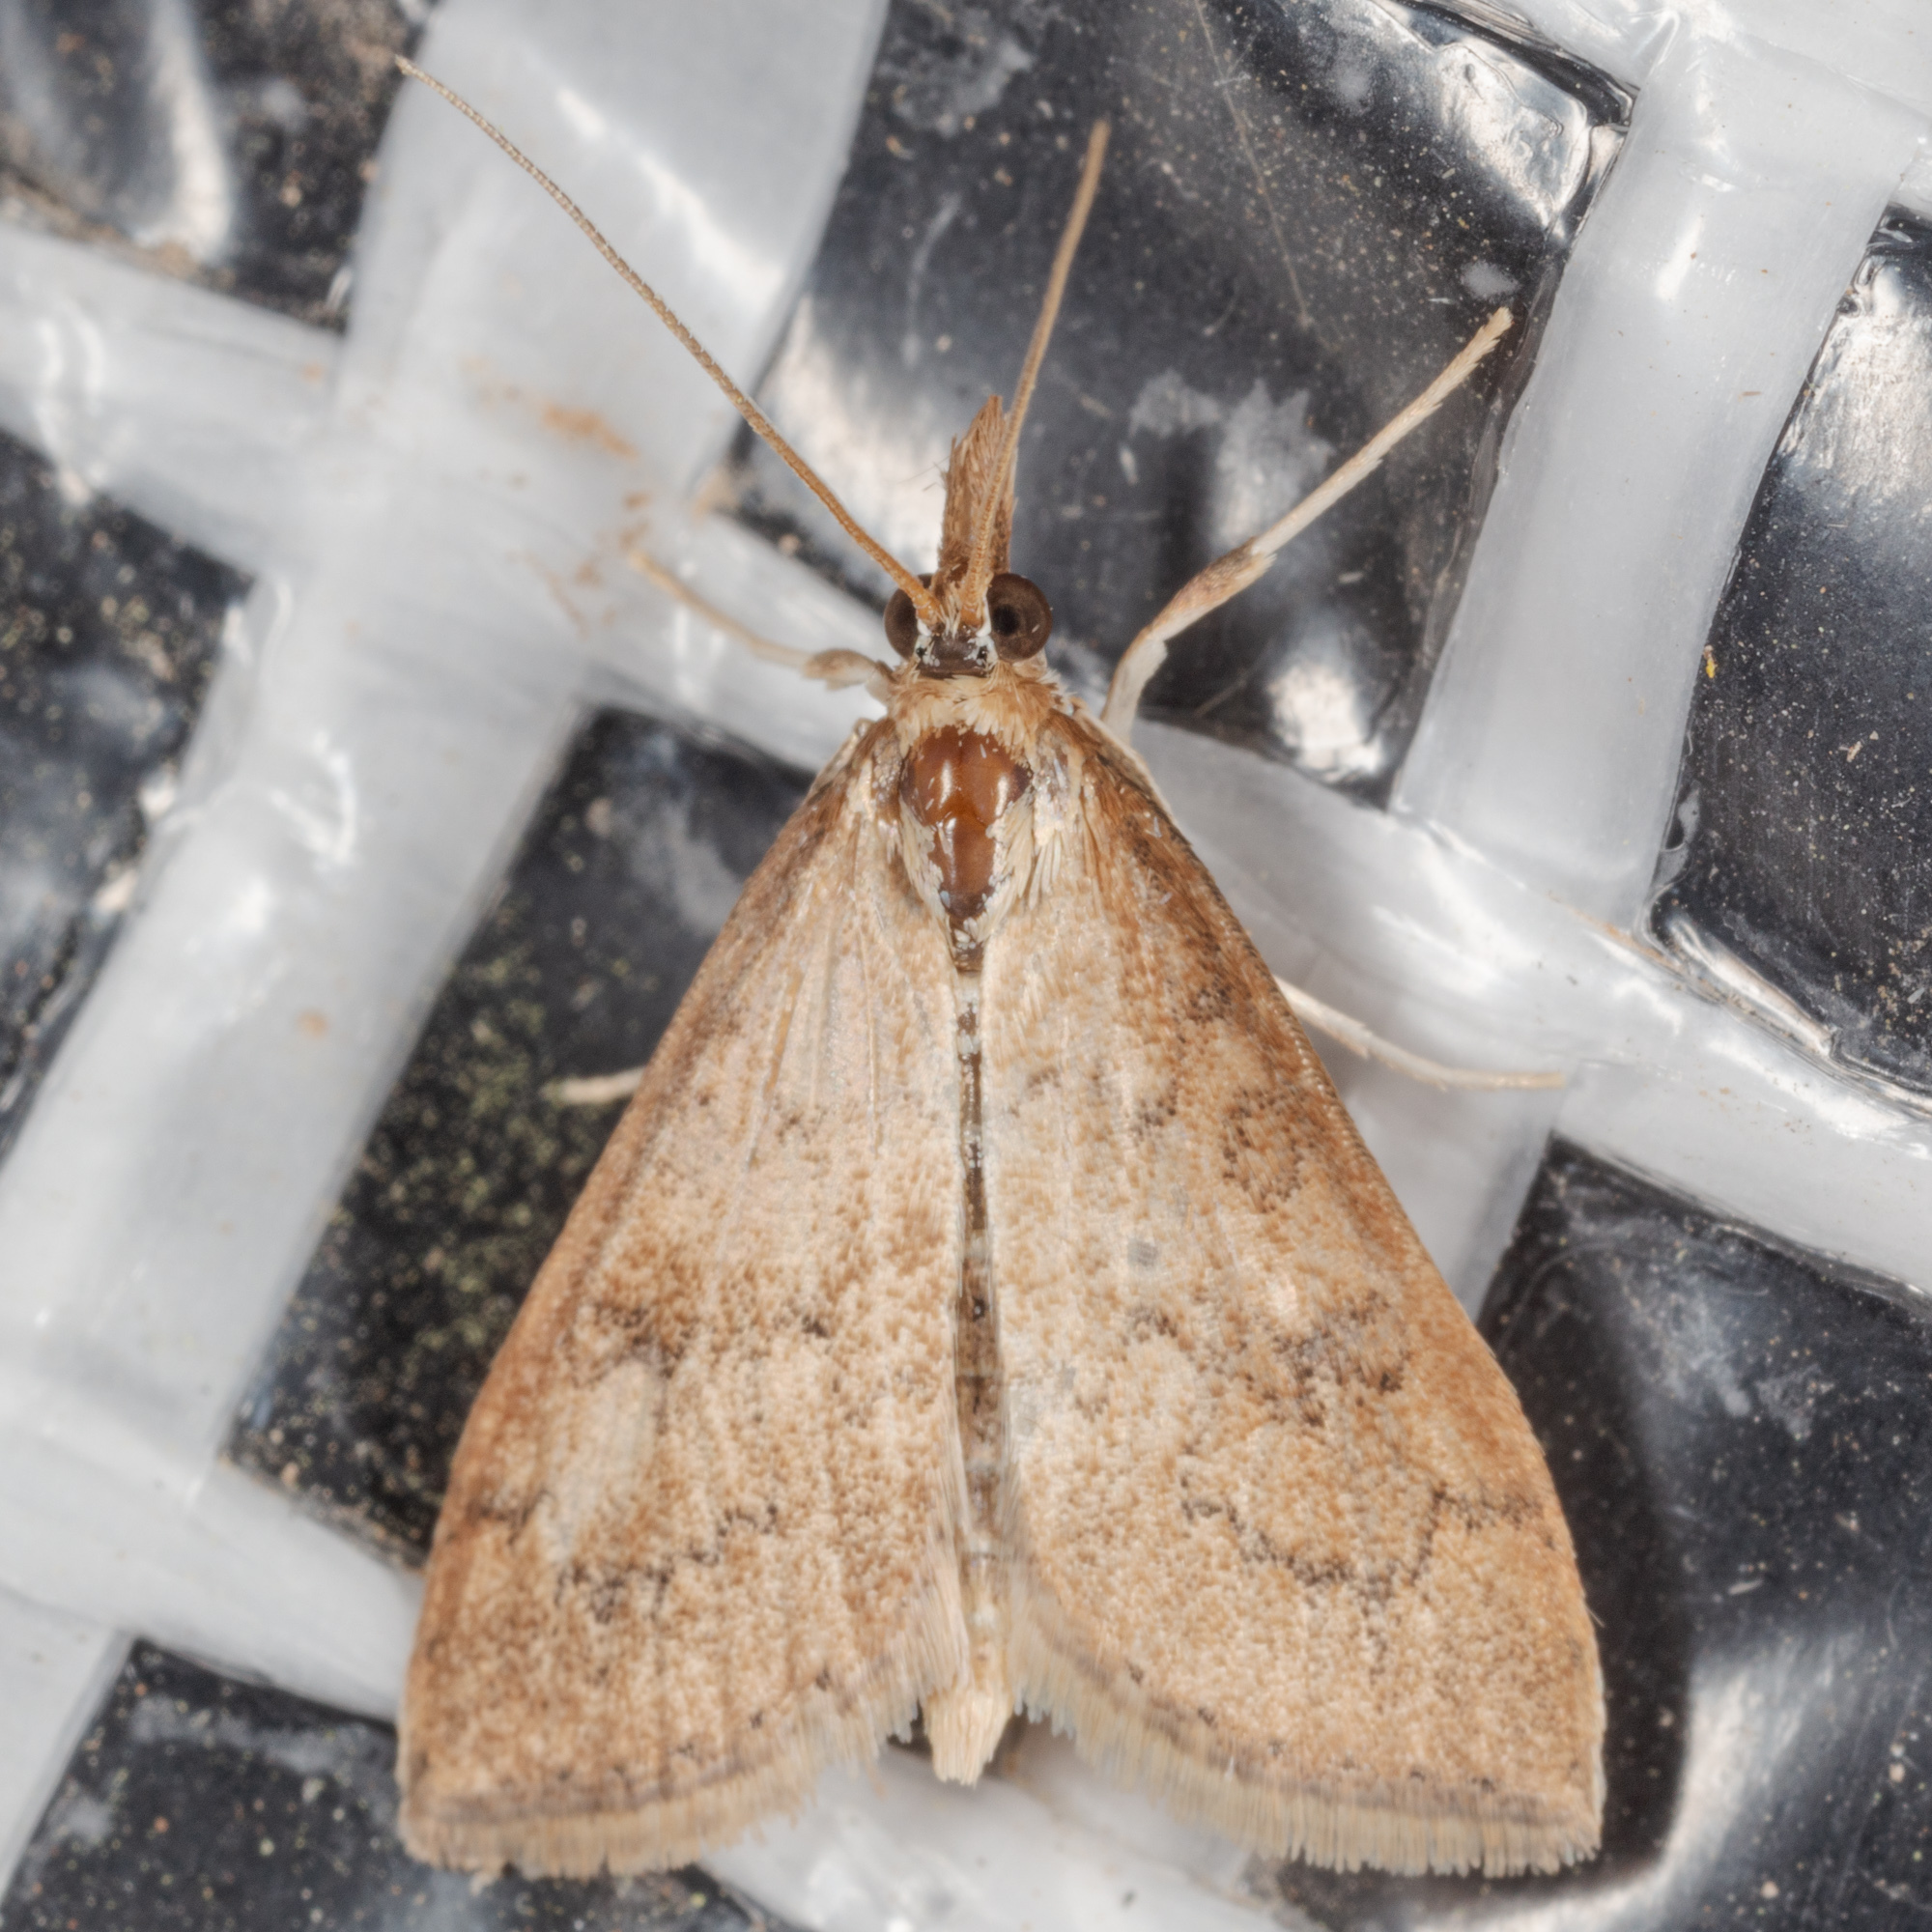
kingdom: Animalia
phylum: Arthropoda
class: Insecta
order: Lepidoptera
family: Crambidae
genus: Udea
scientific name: Udea rubigalis
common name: Celery leaftier moth
